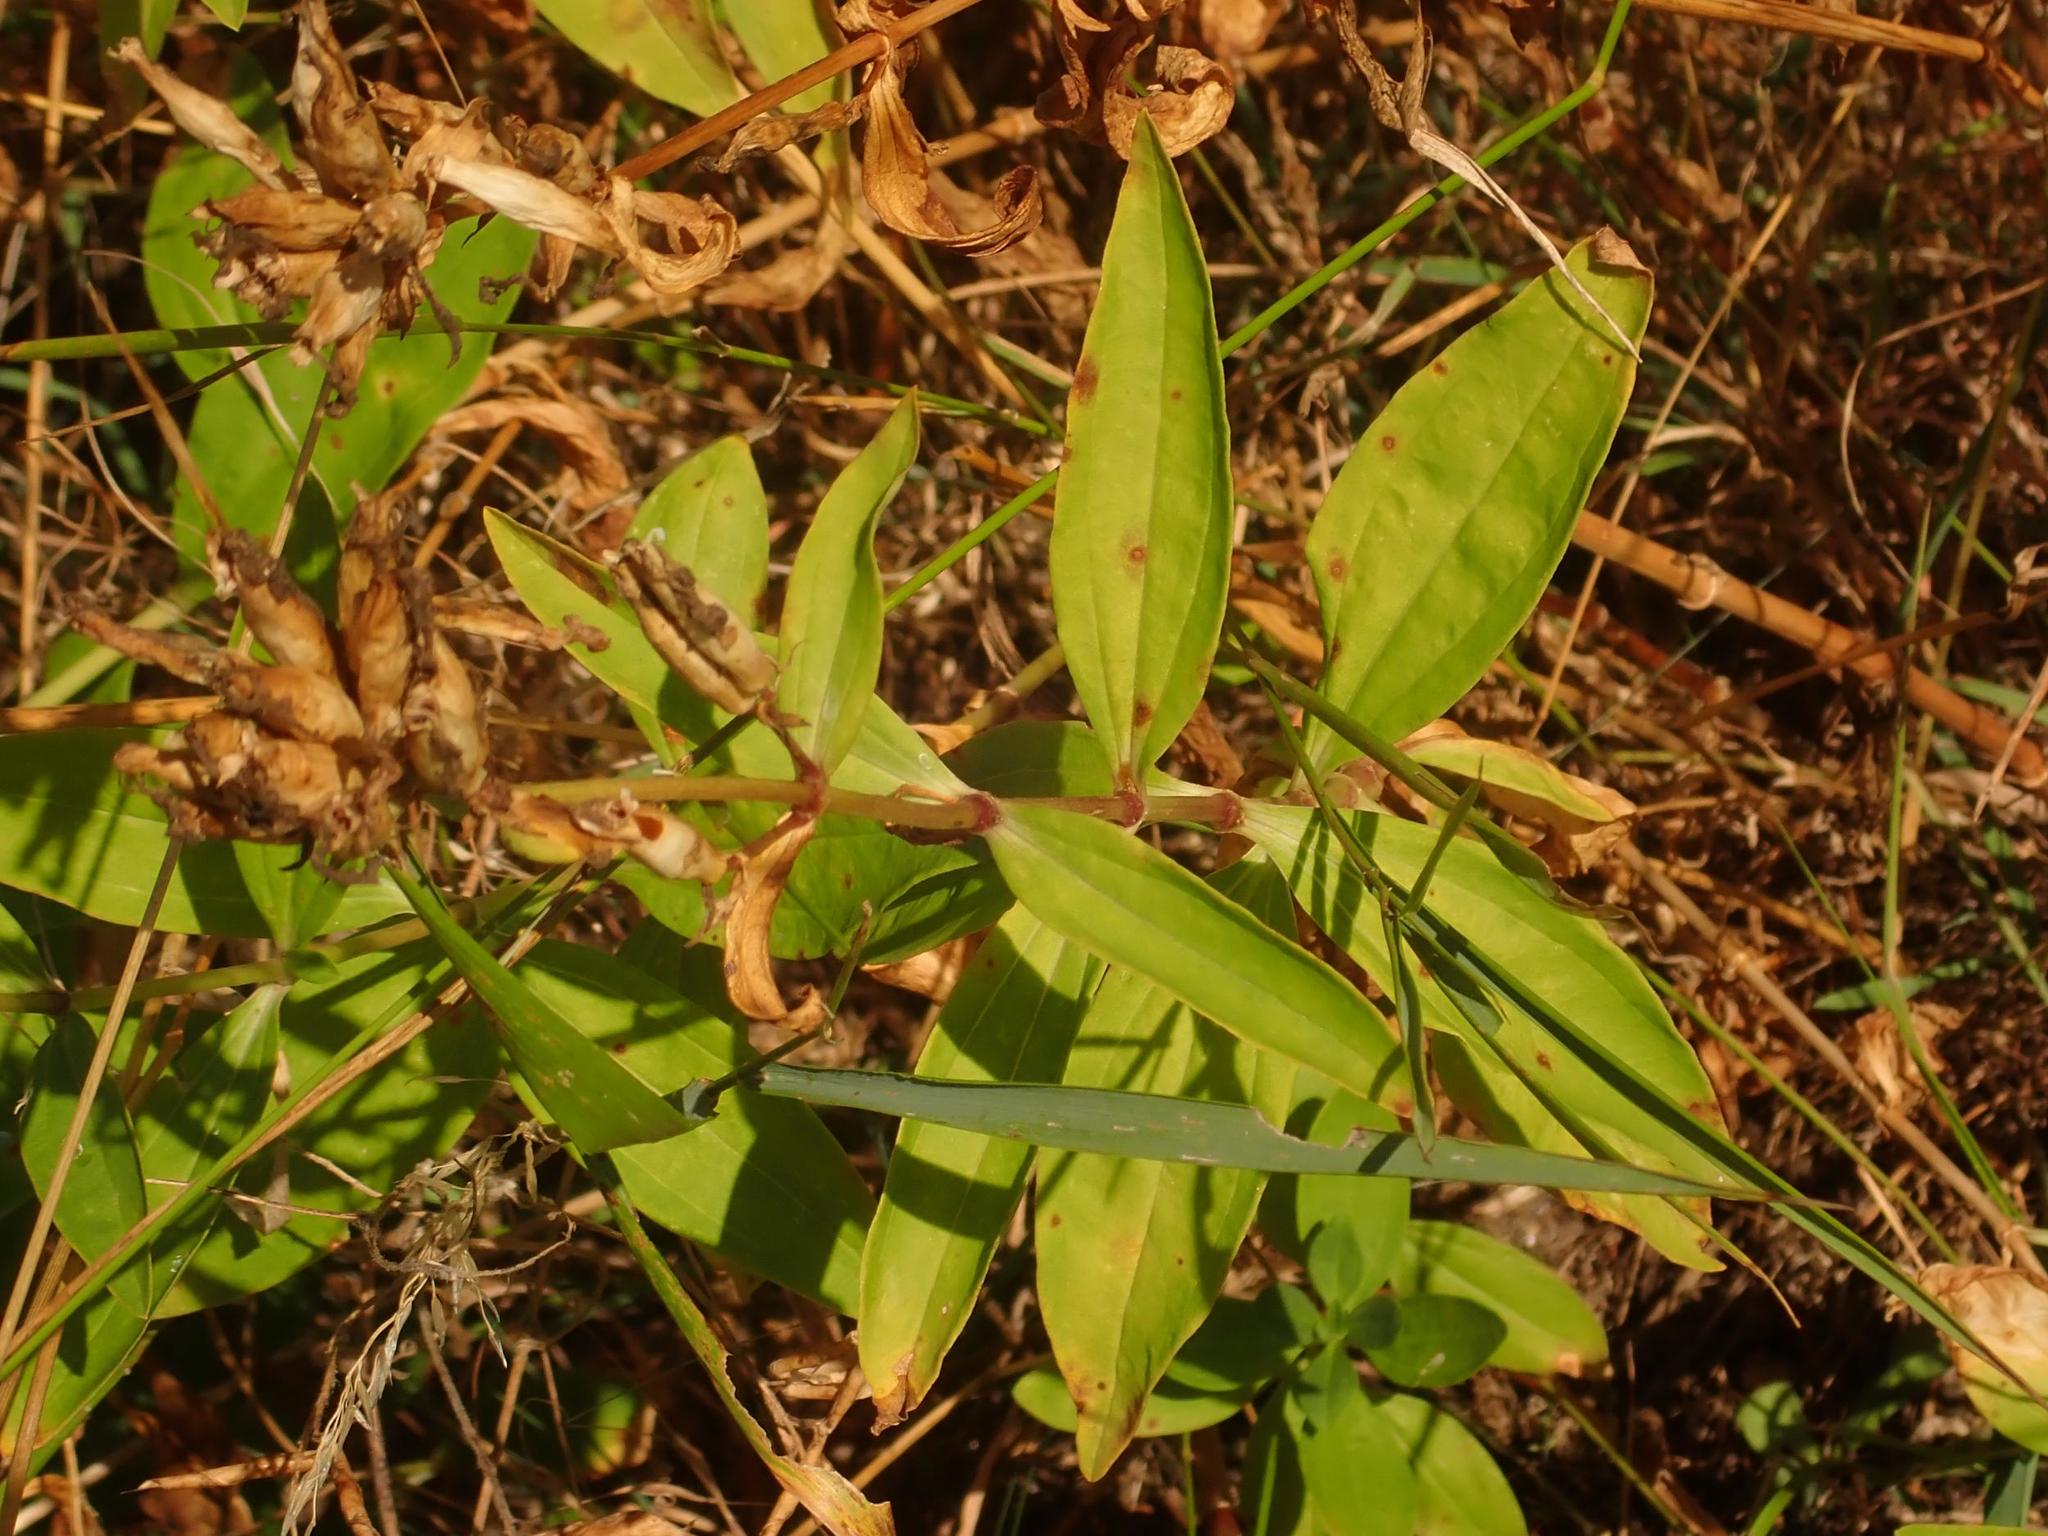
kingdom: Plantae
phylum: Tracheophyta
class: Magnoliopsida
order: Caryophyllales
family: Caryophyllaceae
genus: Saponaria
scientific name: Saponaria officinalis
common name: Soapwort
